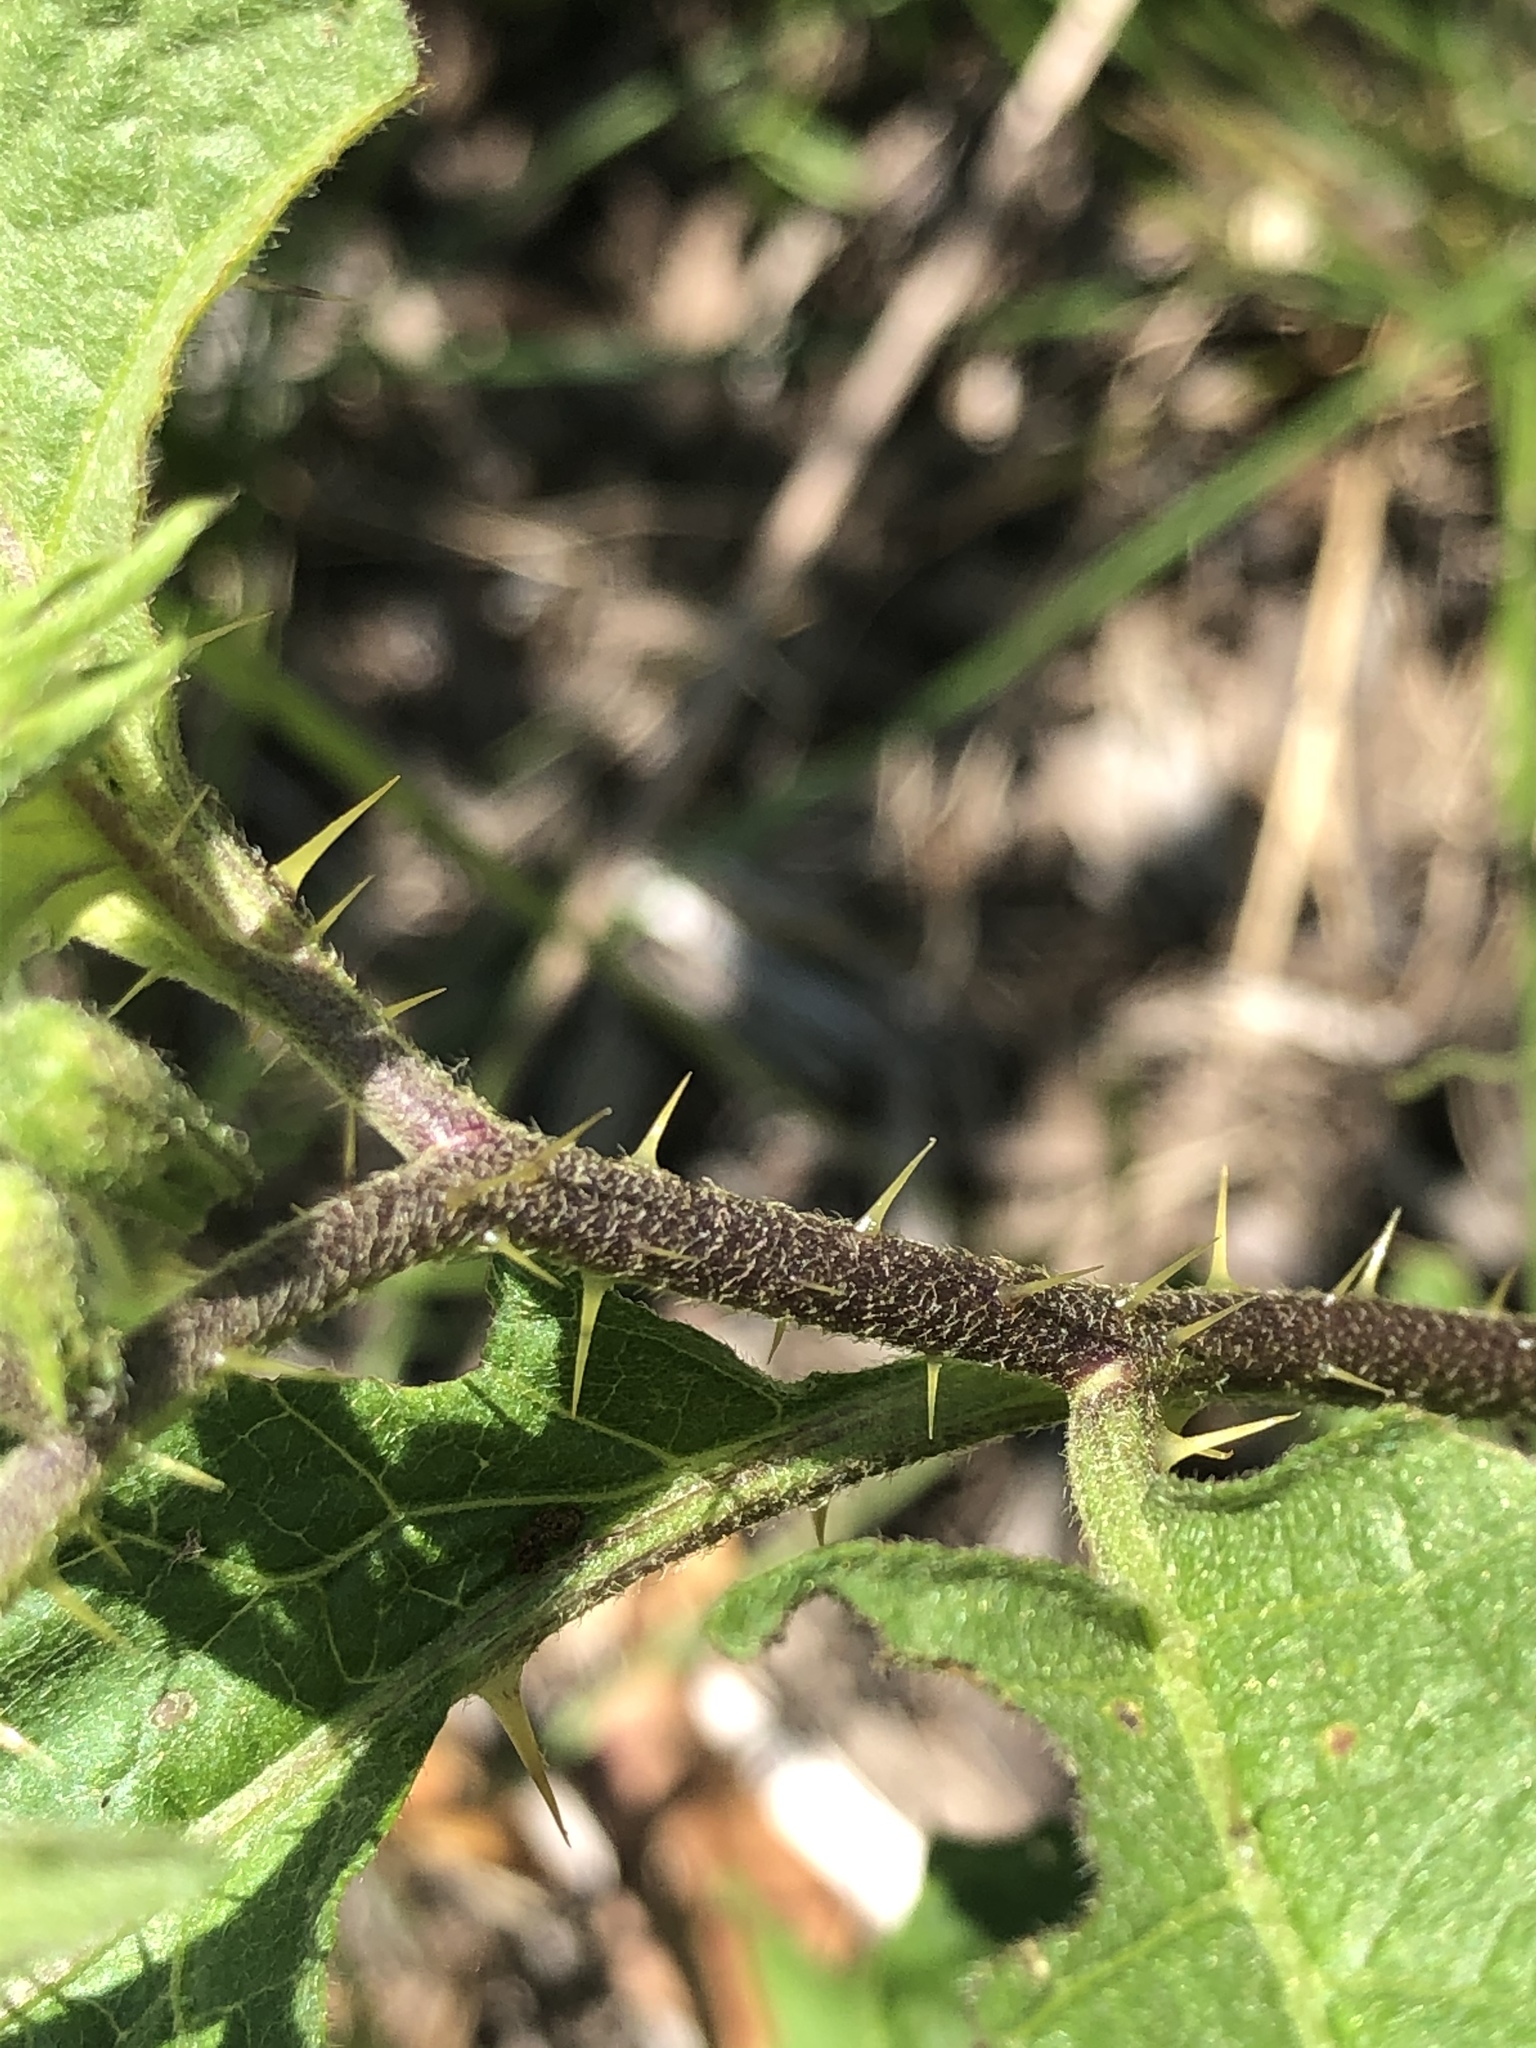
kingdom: Plantae
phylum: Tracheophyta
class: Magnoliopsida
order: Solanales
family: Solanaceae
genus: Solanum
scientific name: Solanum carolinense
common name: Horse-nettle
